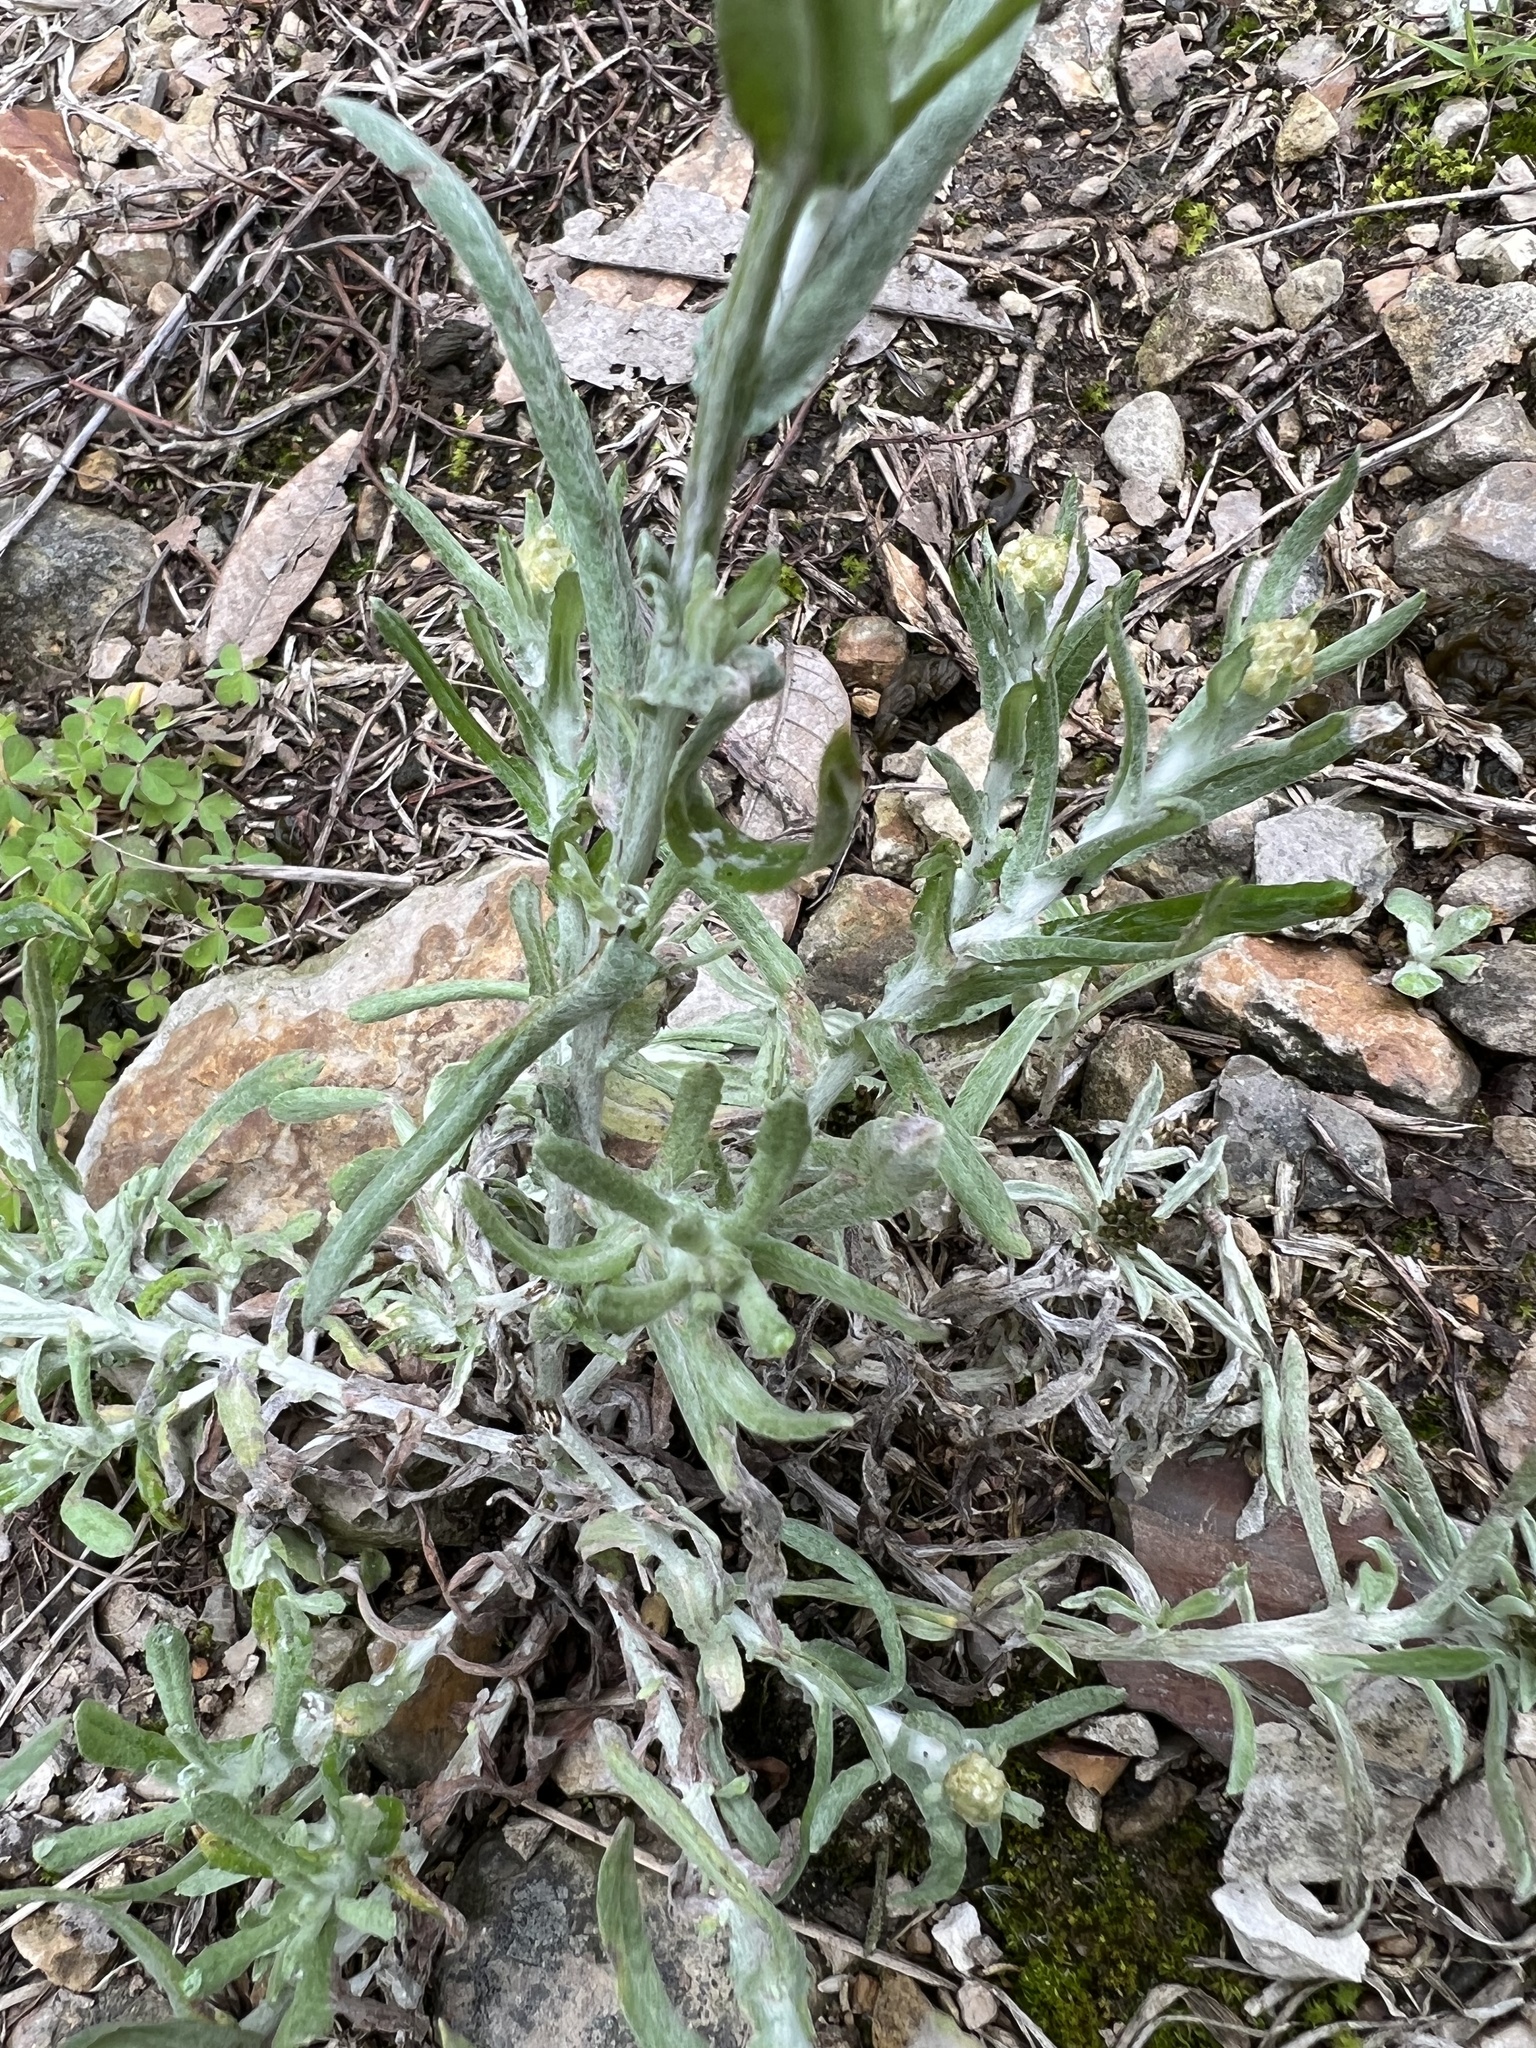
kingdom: Plantae
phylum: Tracheophyta
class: Magnoliopsida
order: Asterales
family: Asteraceae
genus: Helichrysum
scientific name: Helichrysum luteoalbum
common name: Daisy
